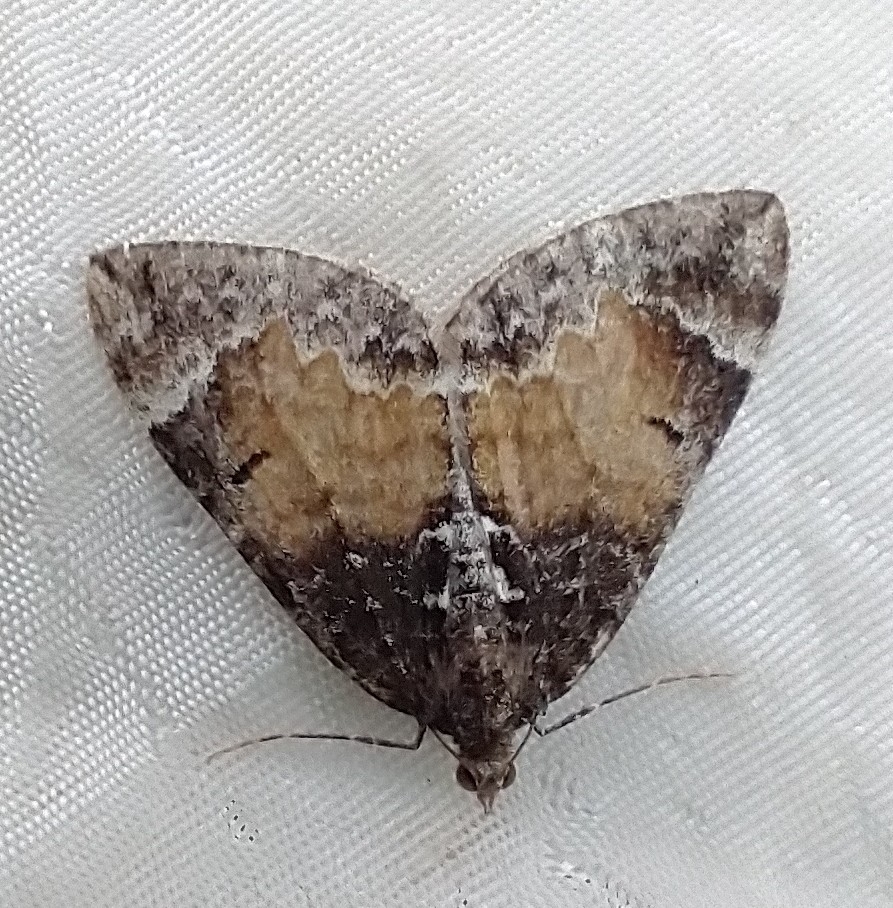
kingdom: Animalia
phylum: Arthropoda
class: Insecta
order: Lepidoptera
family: Geometridae
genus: Dysstroma
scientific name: Dysstroma truncata
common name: Common marbled carpet
